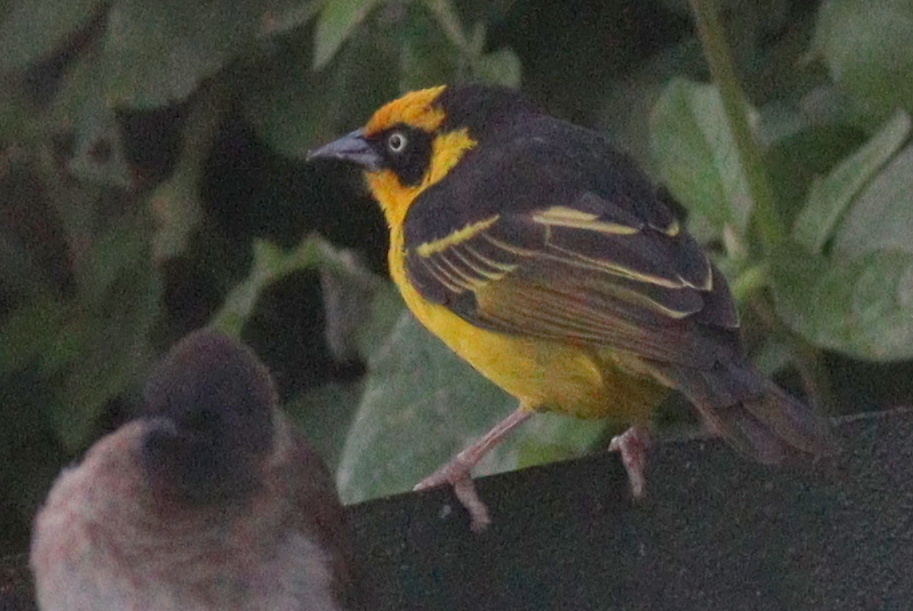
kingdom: Animalia
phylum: Chordata
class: Aves
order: Passeriformes
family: Ploceidae
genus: Ploceus
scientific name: Ploceus baglafecht
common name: Baglafecht weaver
